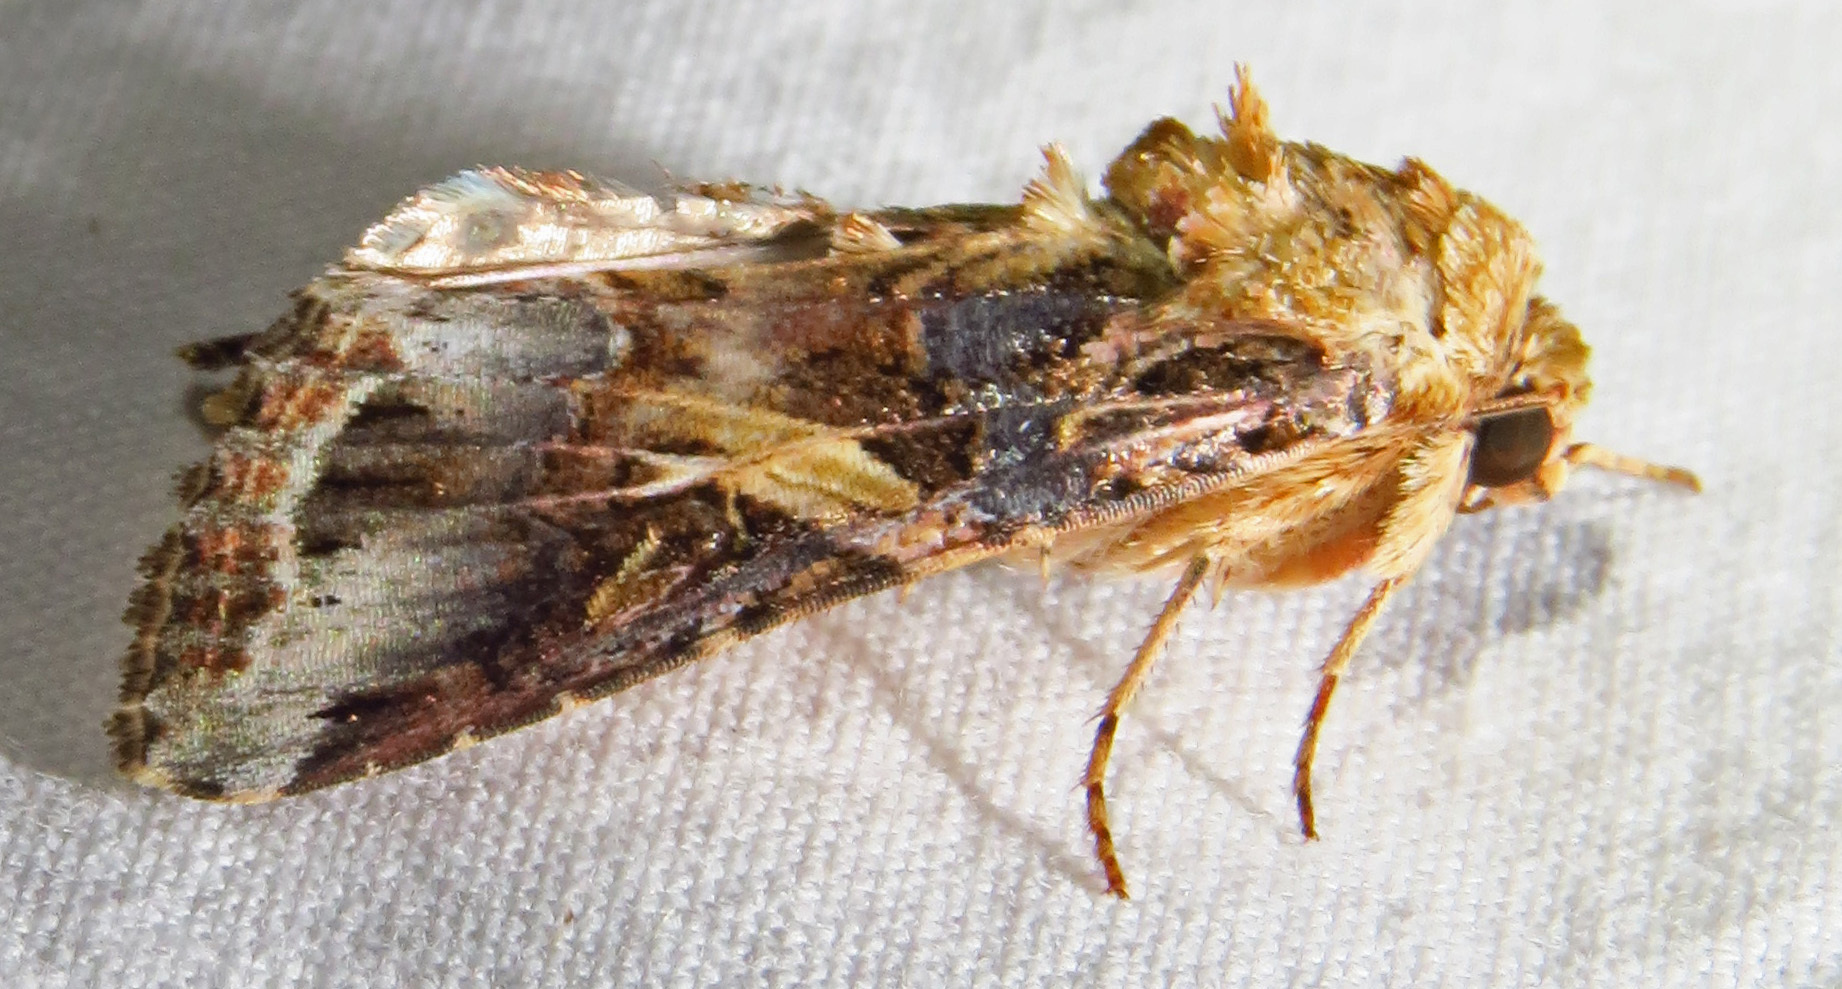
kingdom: Animalia
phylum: Arthropoda
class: Insecta
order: Lepidoptera
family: Noctuidae
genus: Spodoptera
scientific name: Spodoptera ornithogalli
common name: Yellow-striped armyworm
